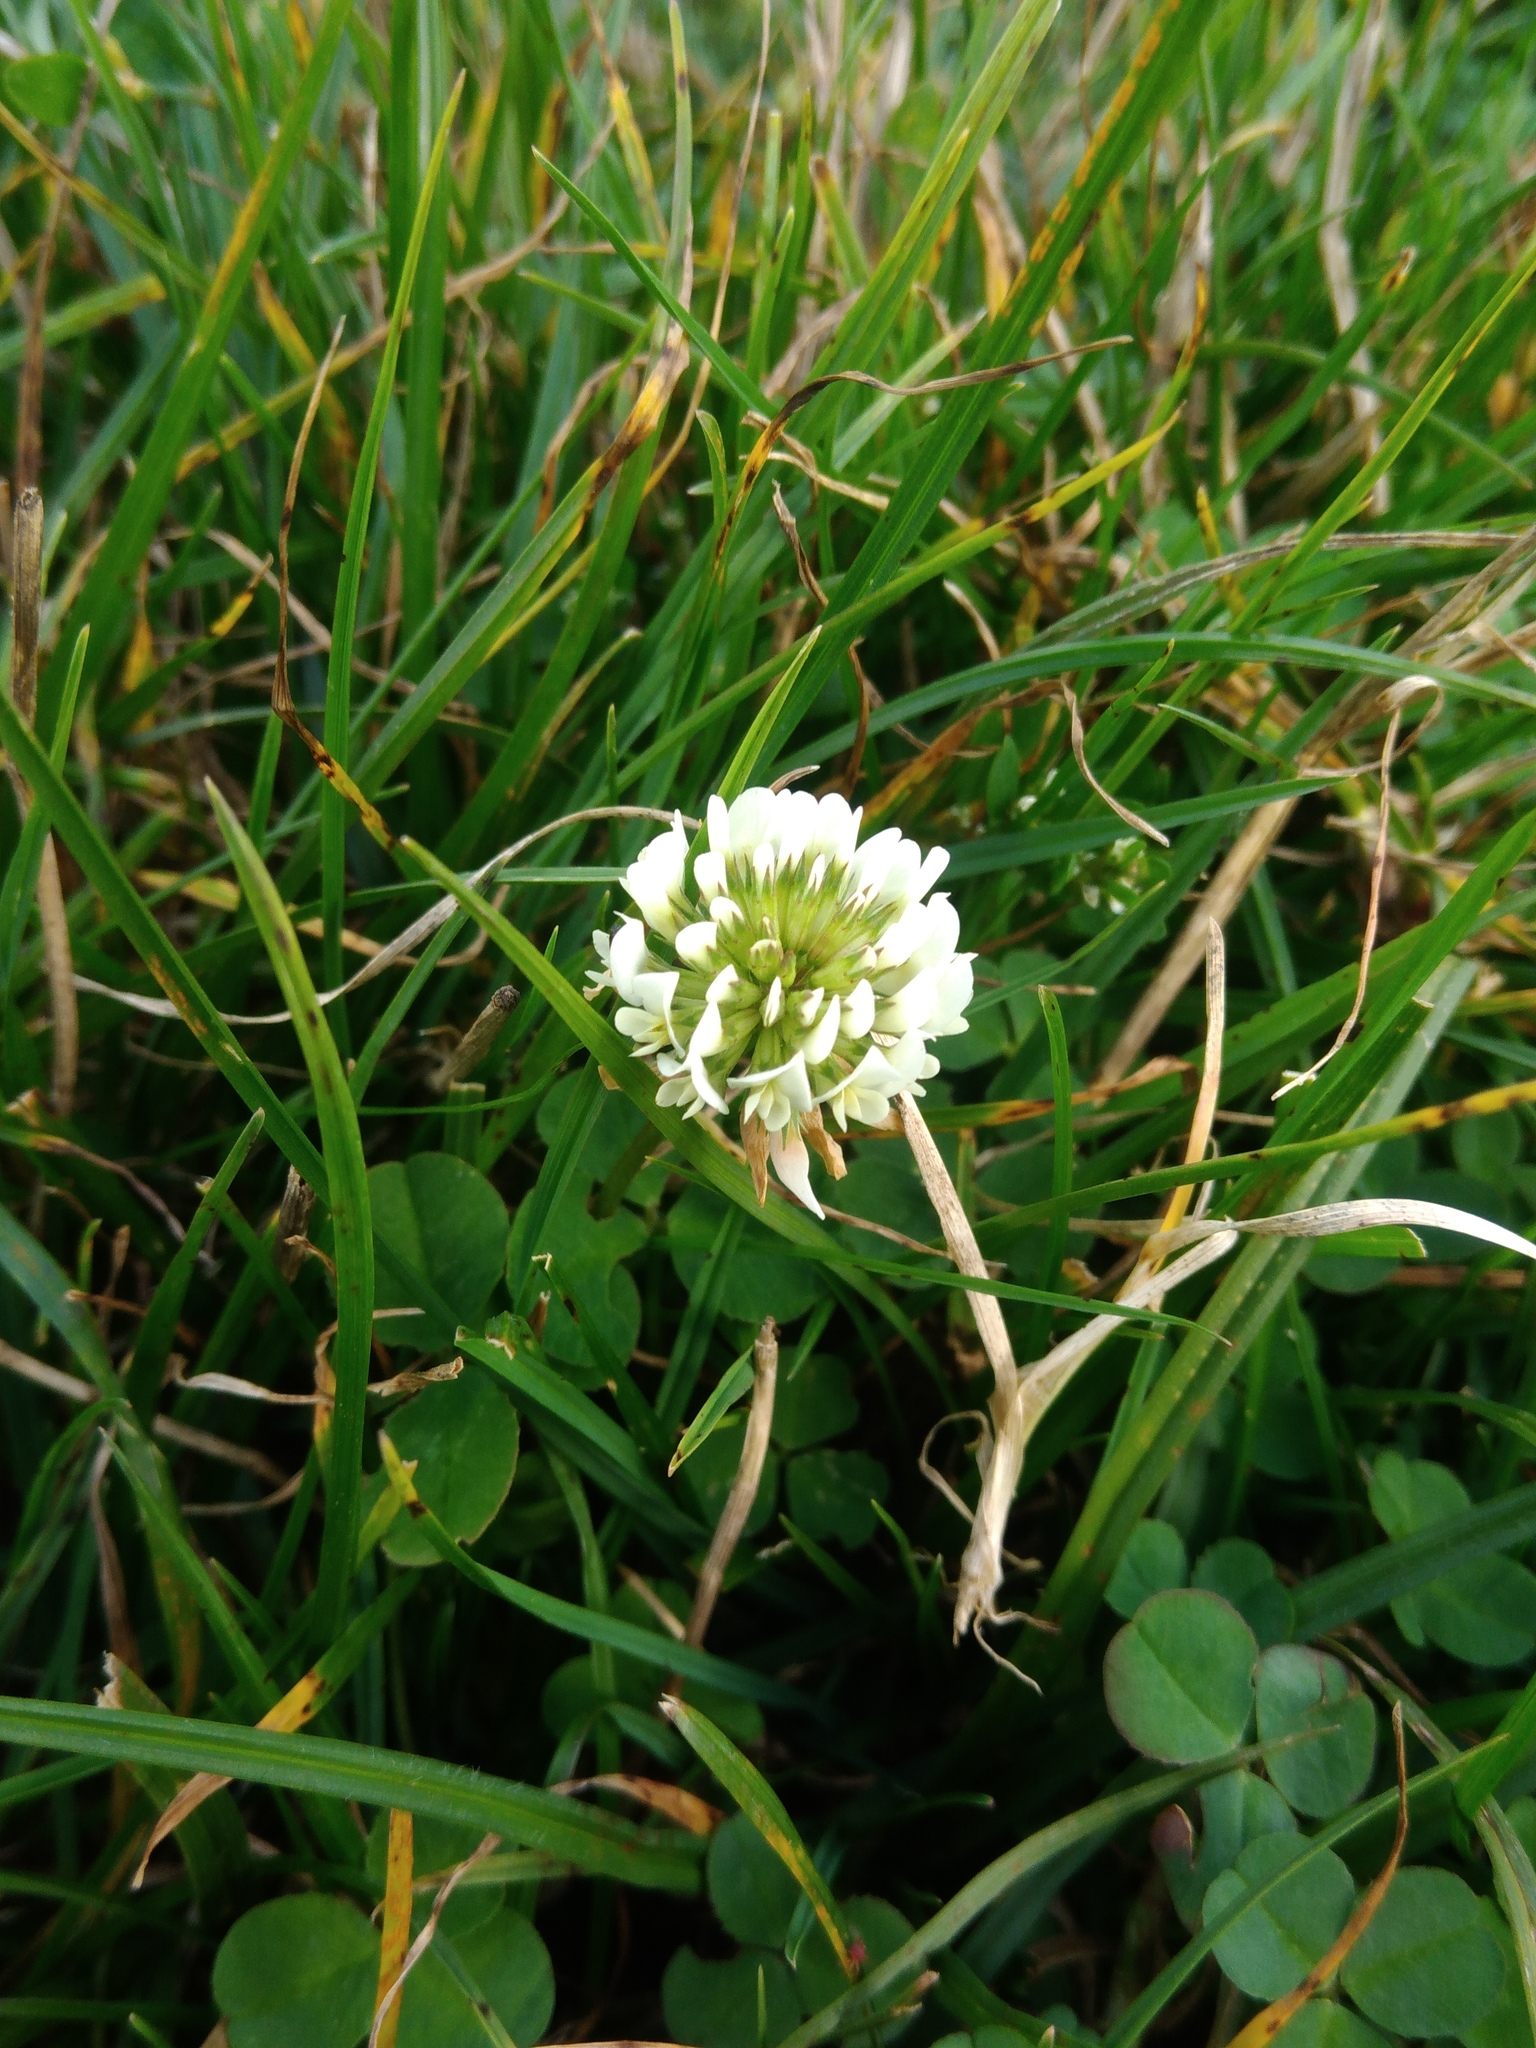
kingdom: Plantae
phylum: Tracheophyta
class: Magnoliopsida
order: Fabales
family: Fabaceae
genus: Trifolium
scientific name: Trifolium repens
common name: White clover
